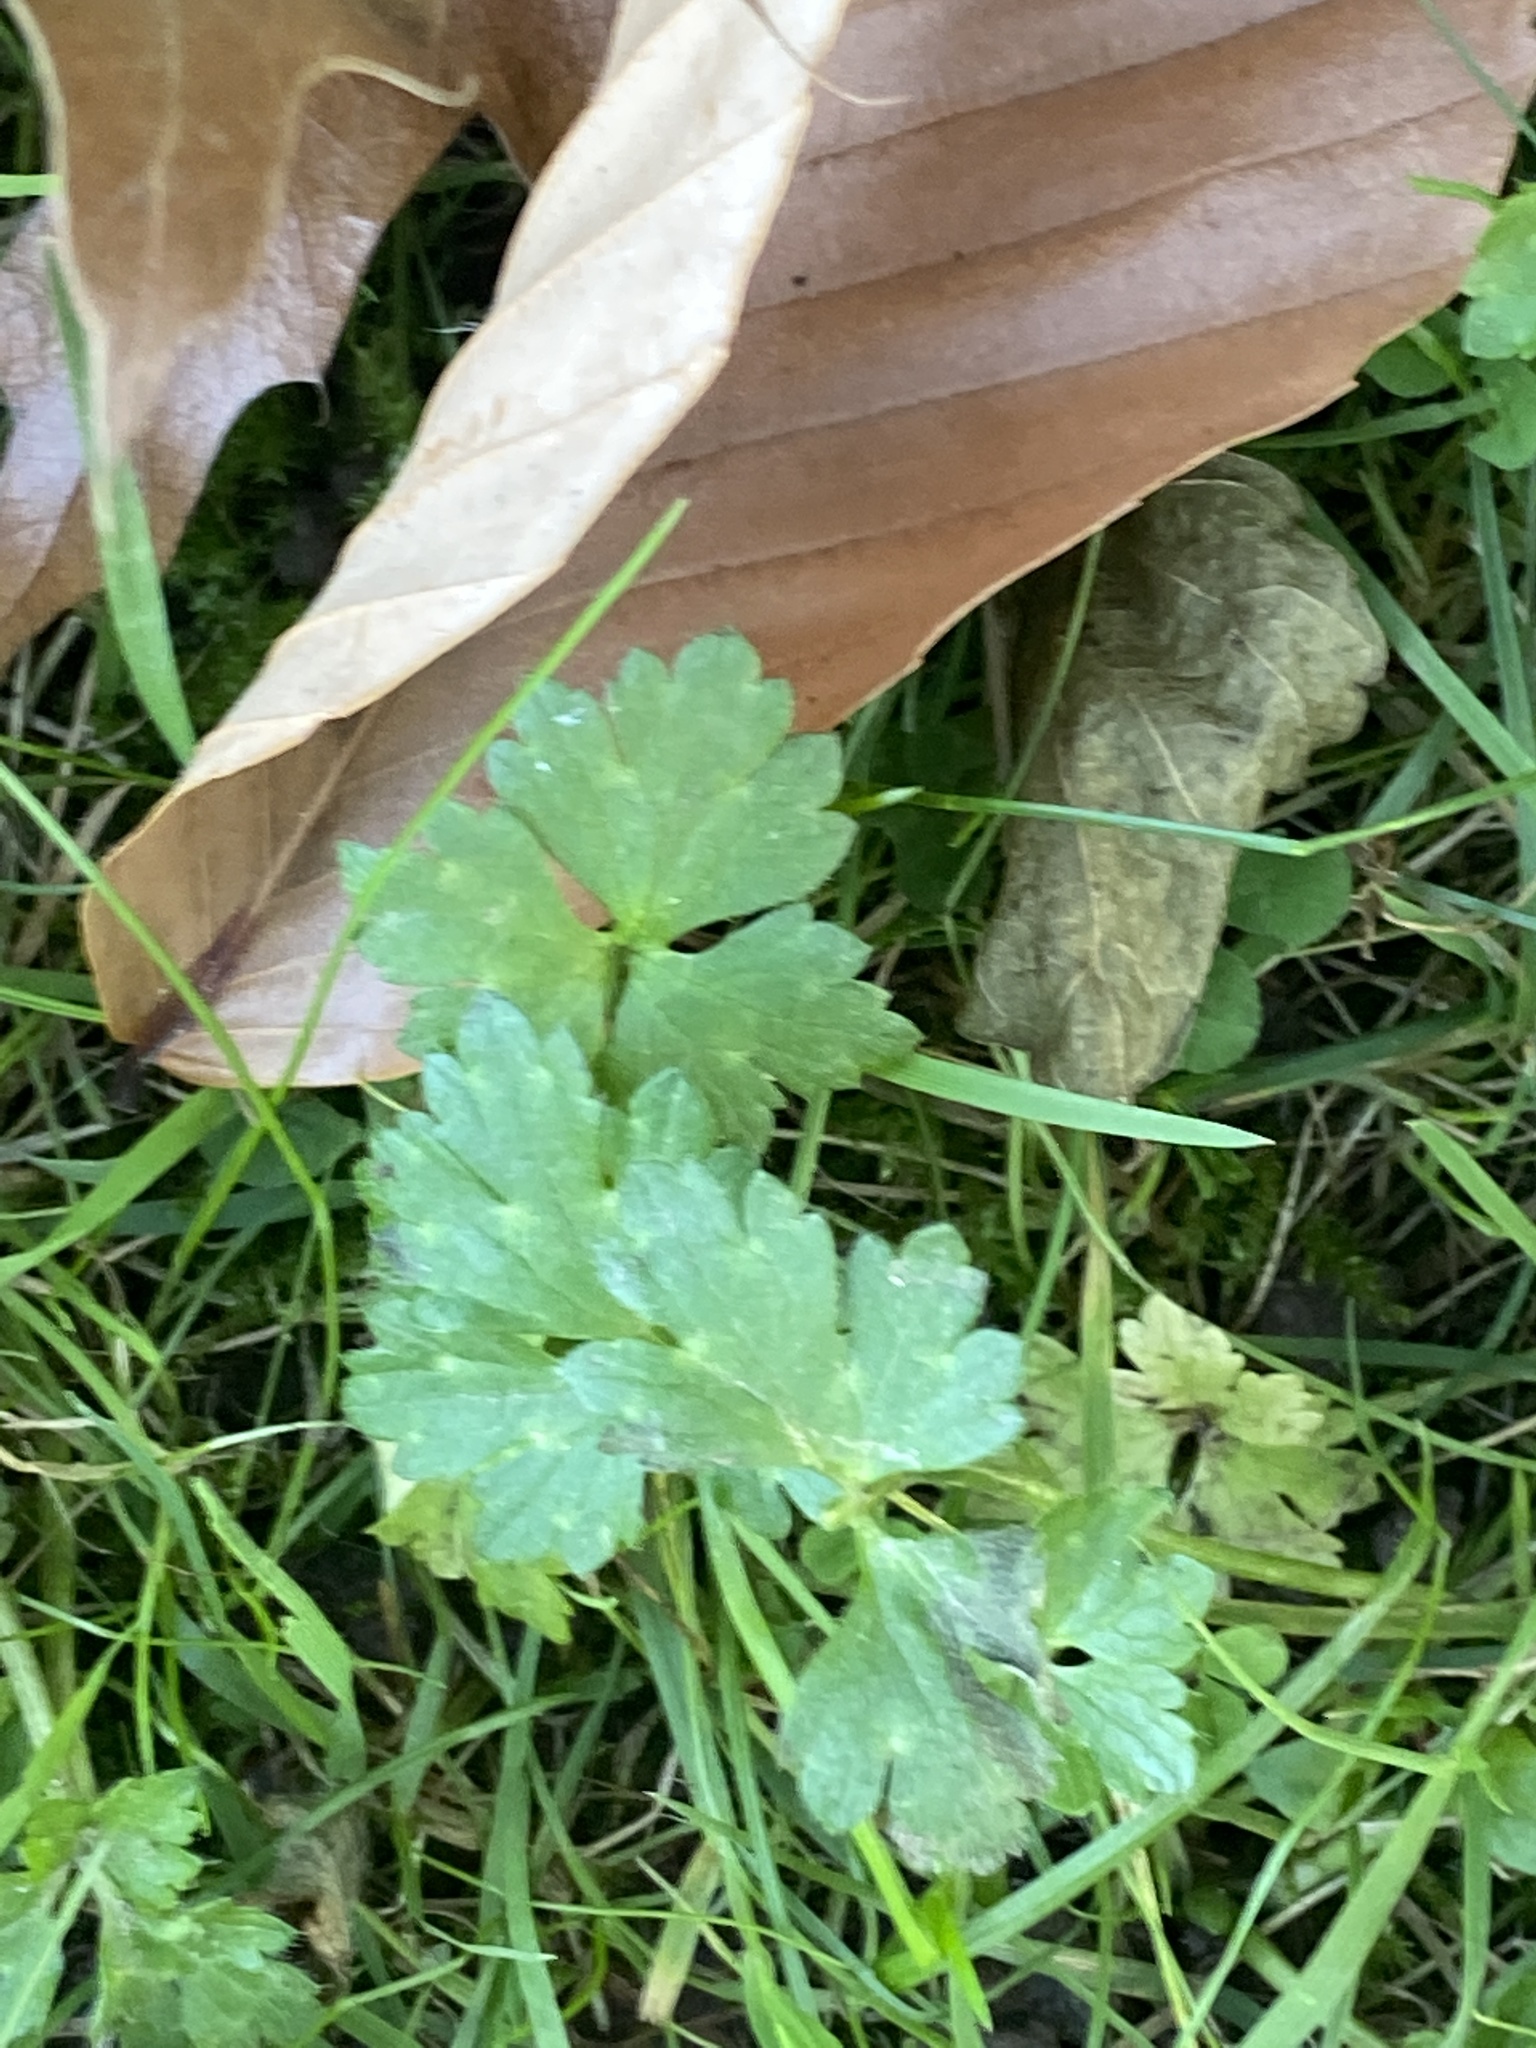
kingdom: Plantae
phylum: Tracheophyta
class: Magnoliopsida
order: Ranunculales
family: Ranunculaceae
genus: Ranunculus
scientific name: Ranunculus repens
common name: Creeping buttercup
